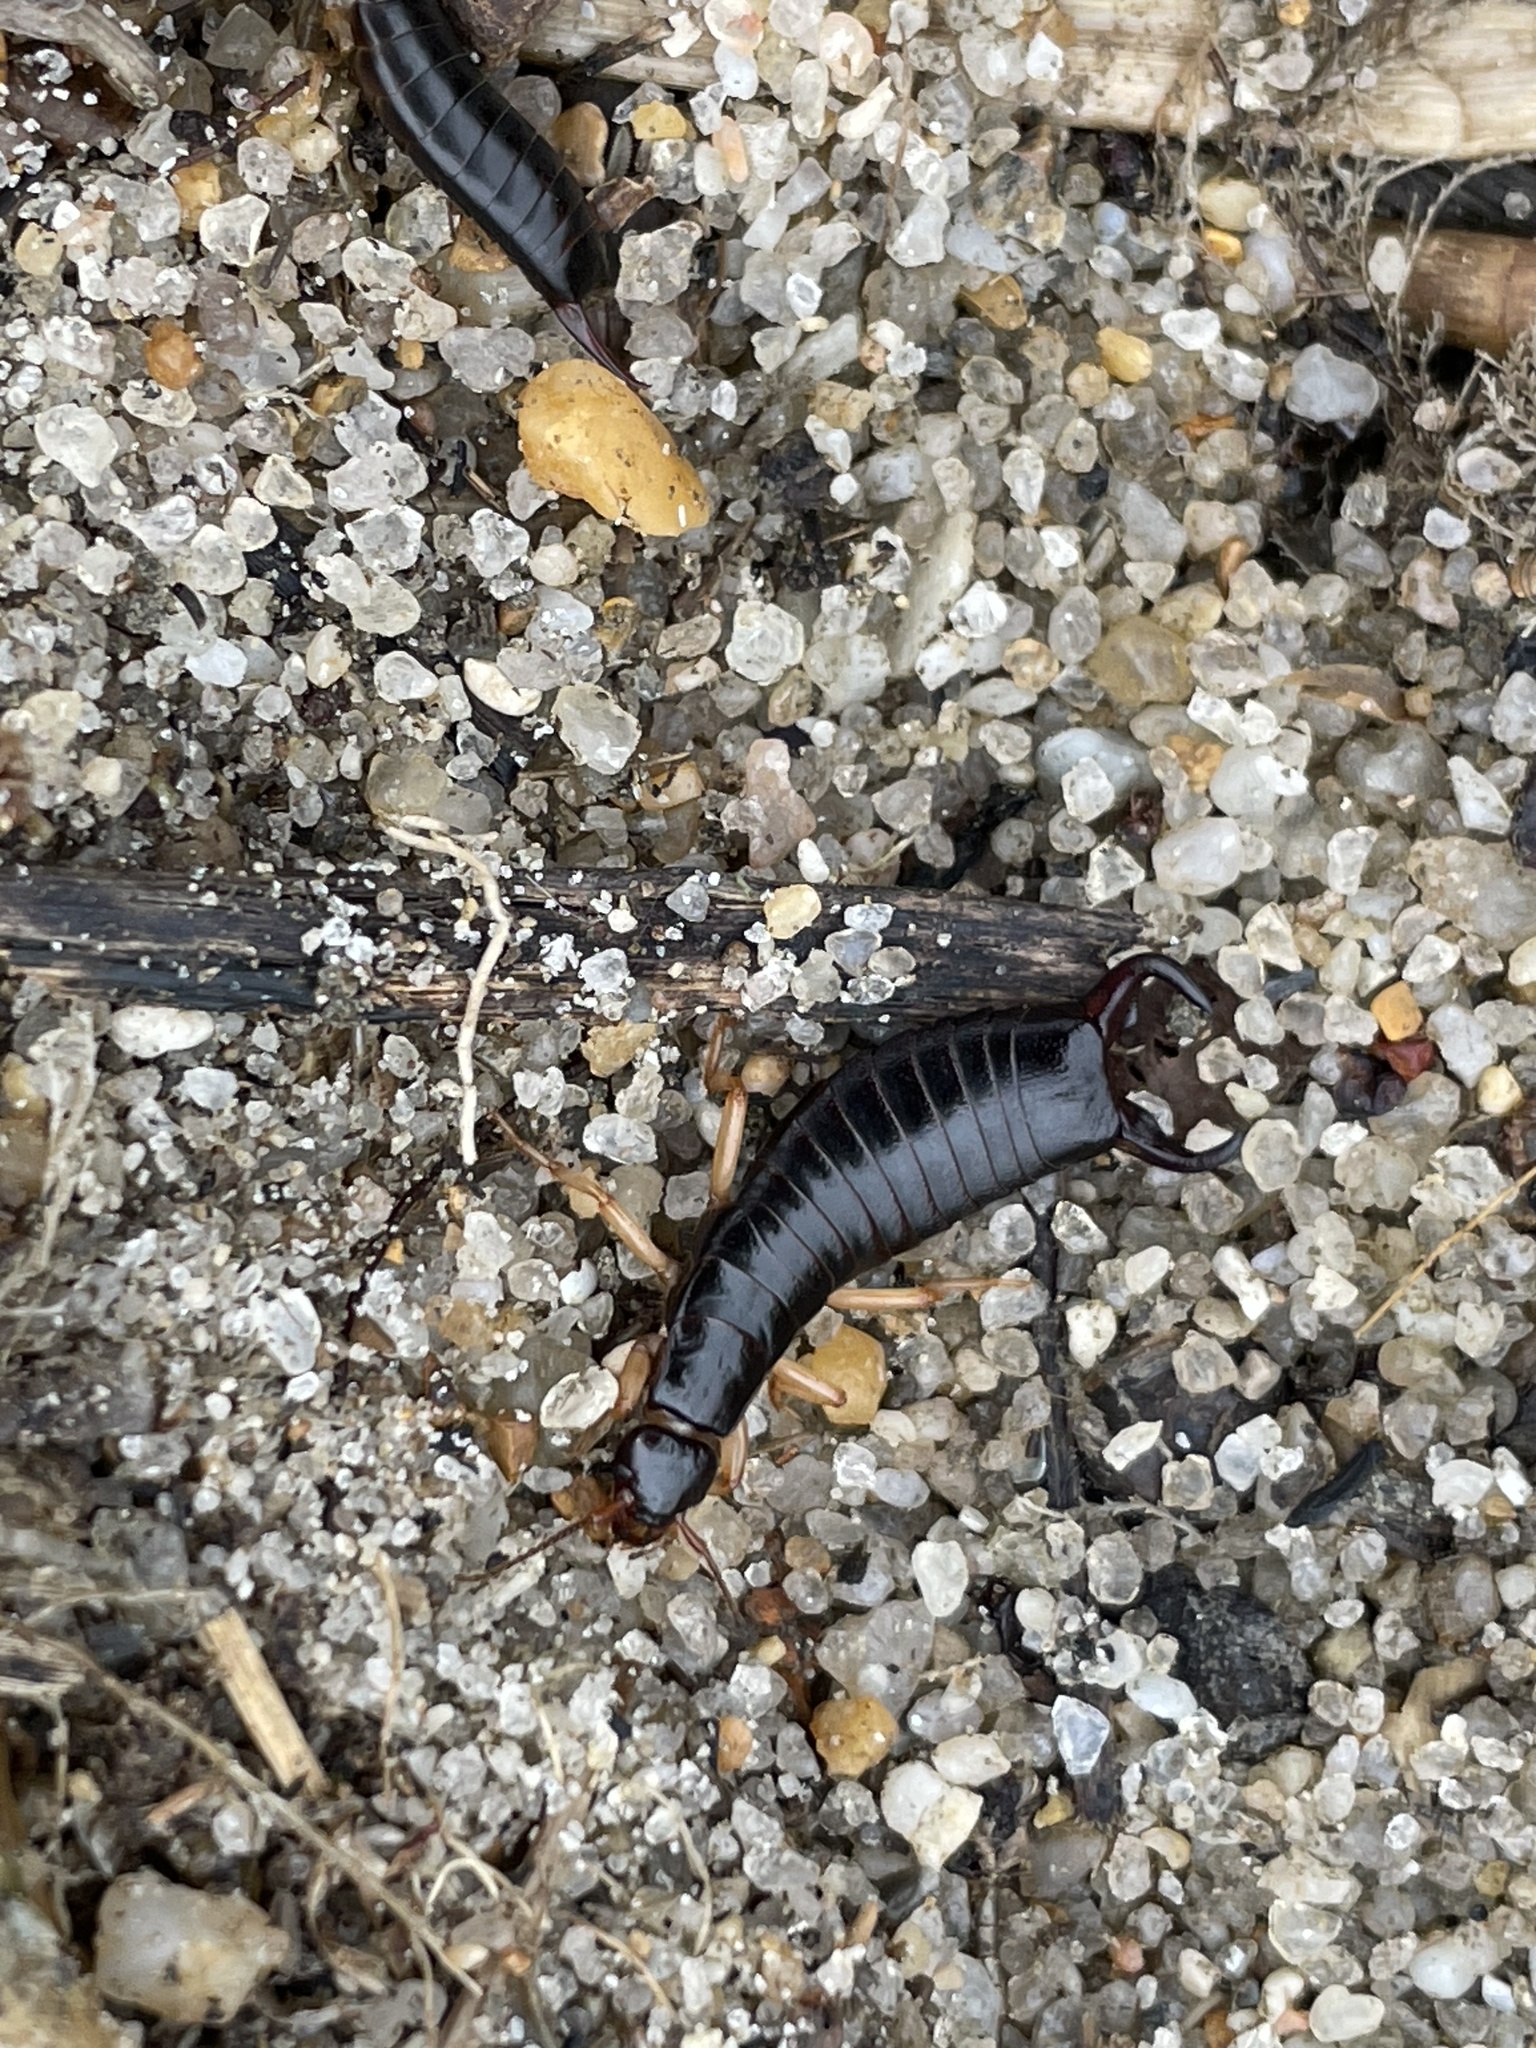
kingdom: Animalia
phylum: Arthropoda
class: Insecta
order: Dermaptera
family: Anisolabididae
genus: Anisolabis
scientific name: Anisolabis maritima
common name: Maritime earwig
